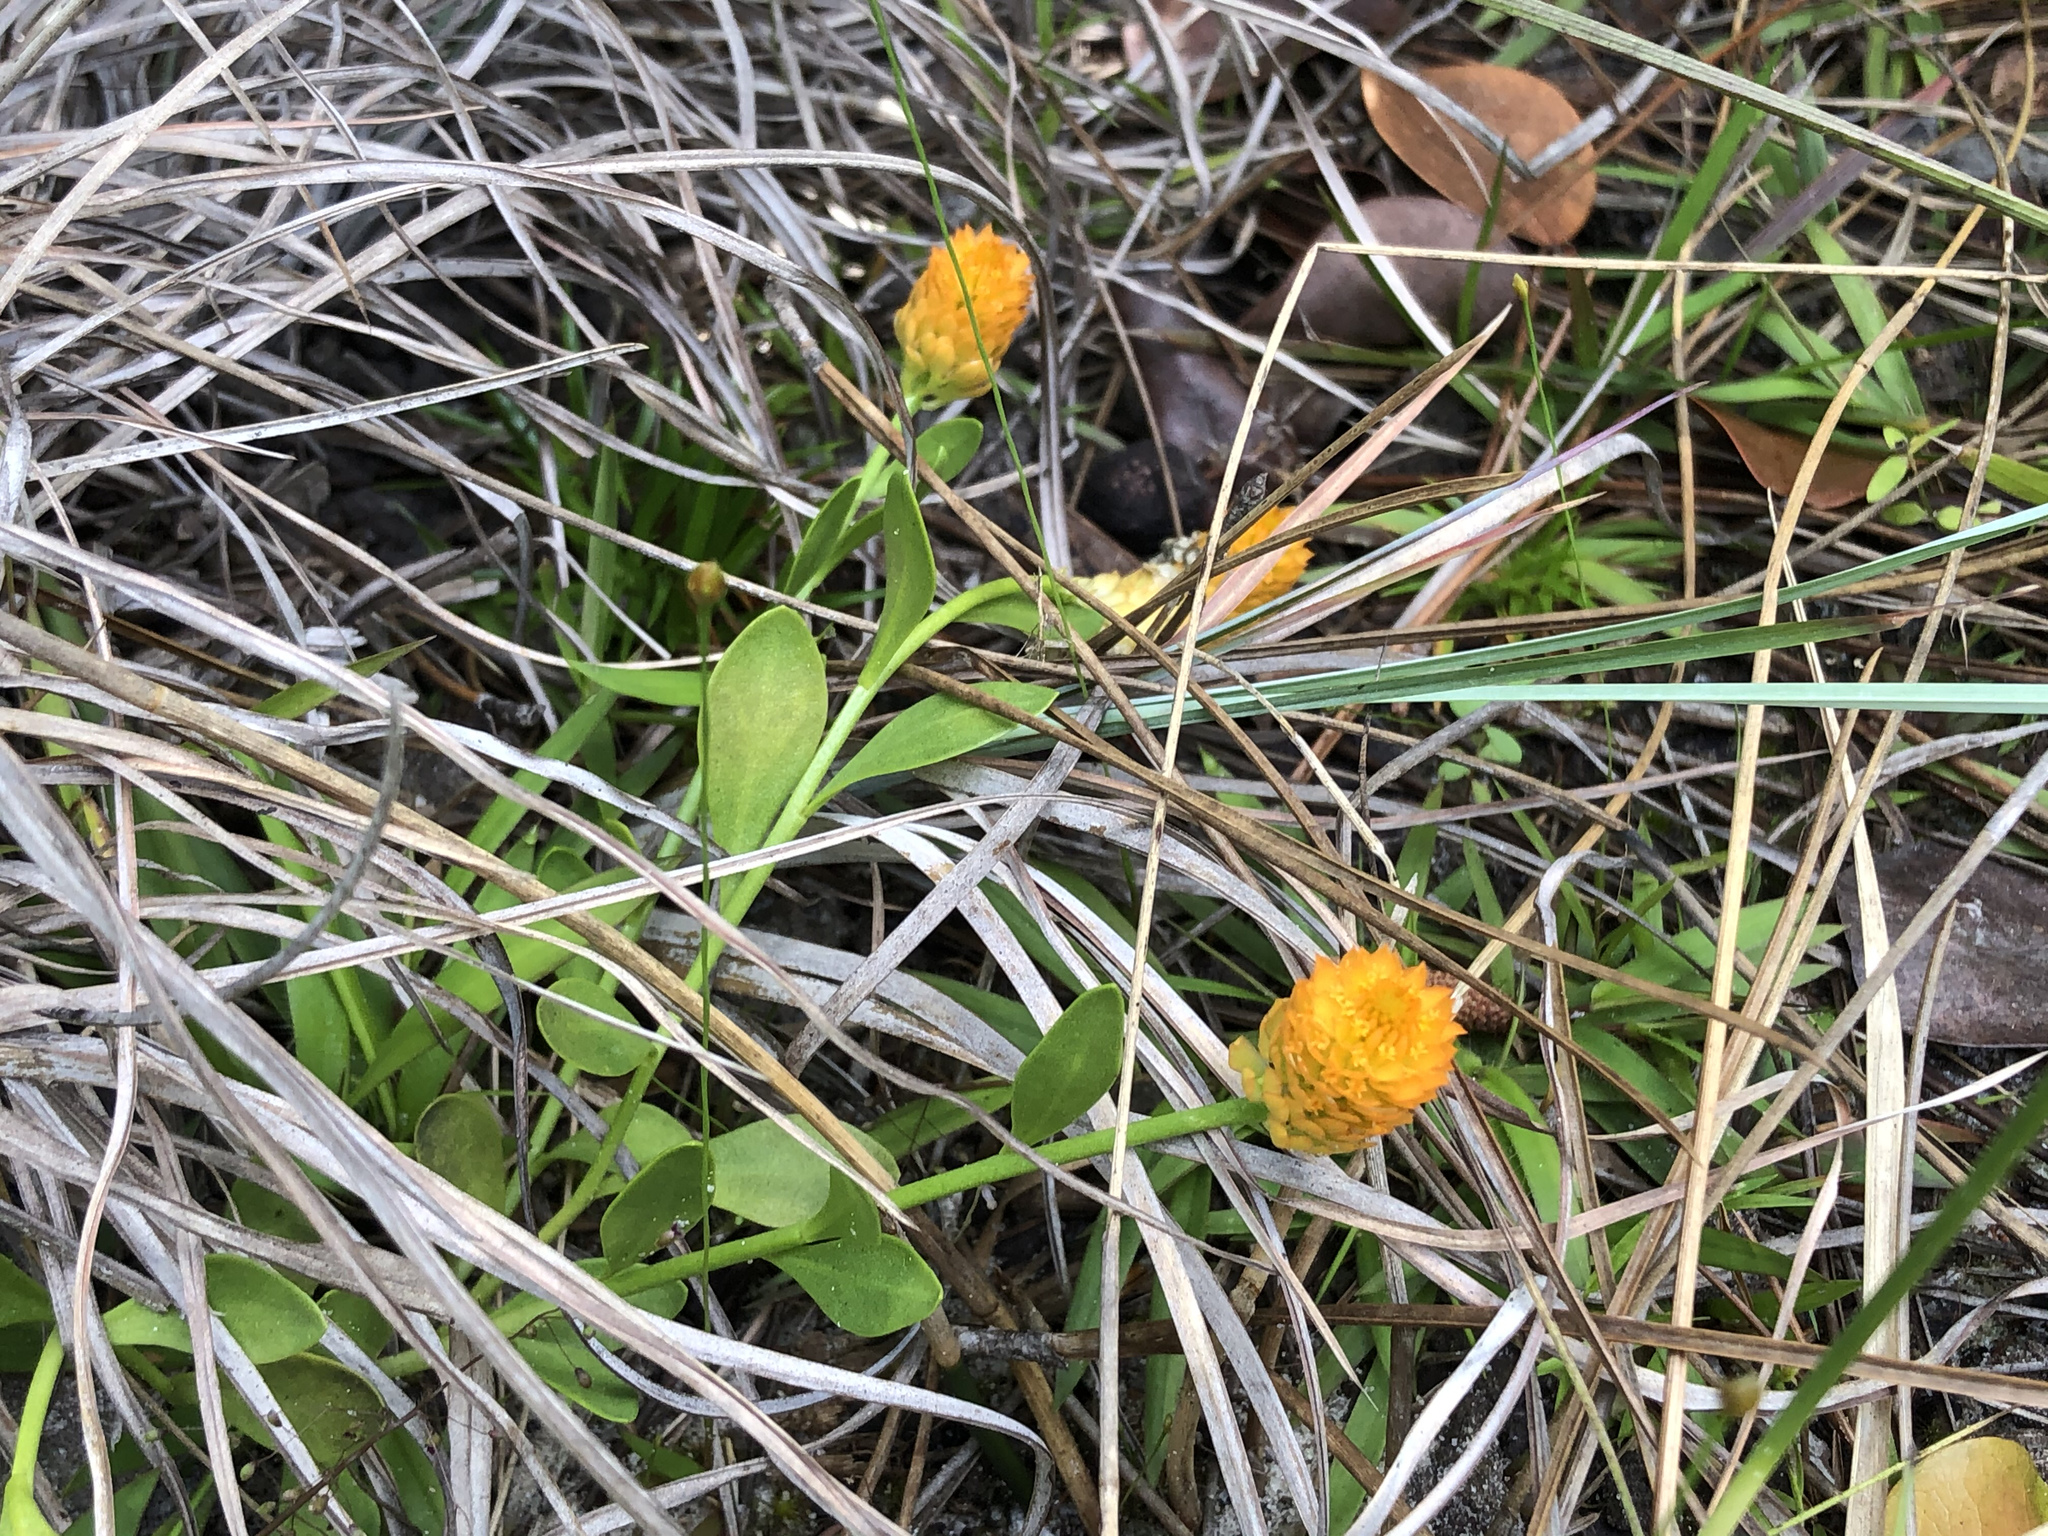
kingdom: Plantae
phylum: Tracheophyta
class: Magnoliopsida
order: Fabales
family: Polygalaceae
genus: Polygala
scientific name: Polygala lutea
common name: Orange milkwort
